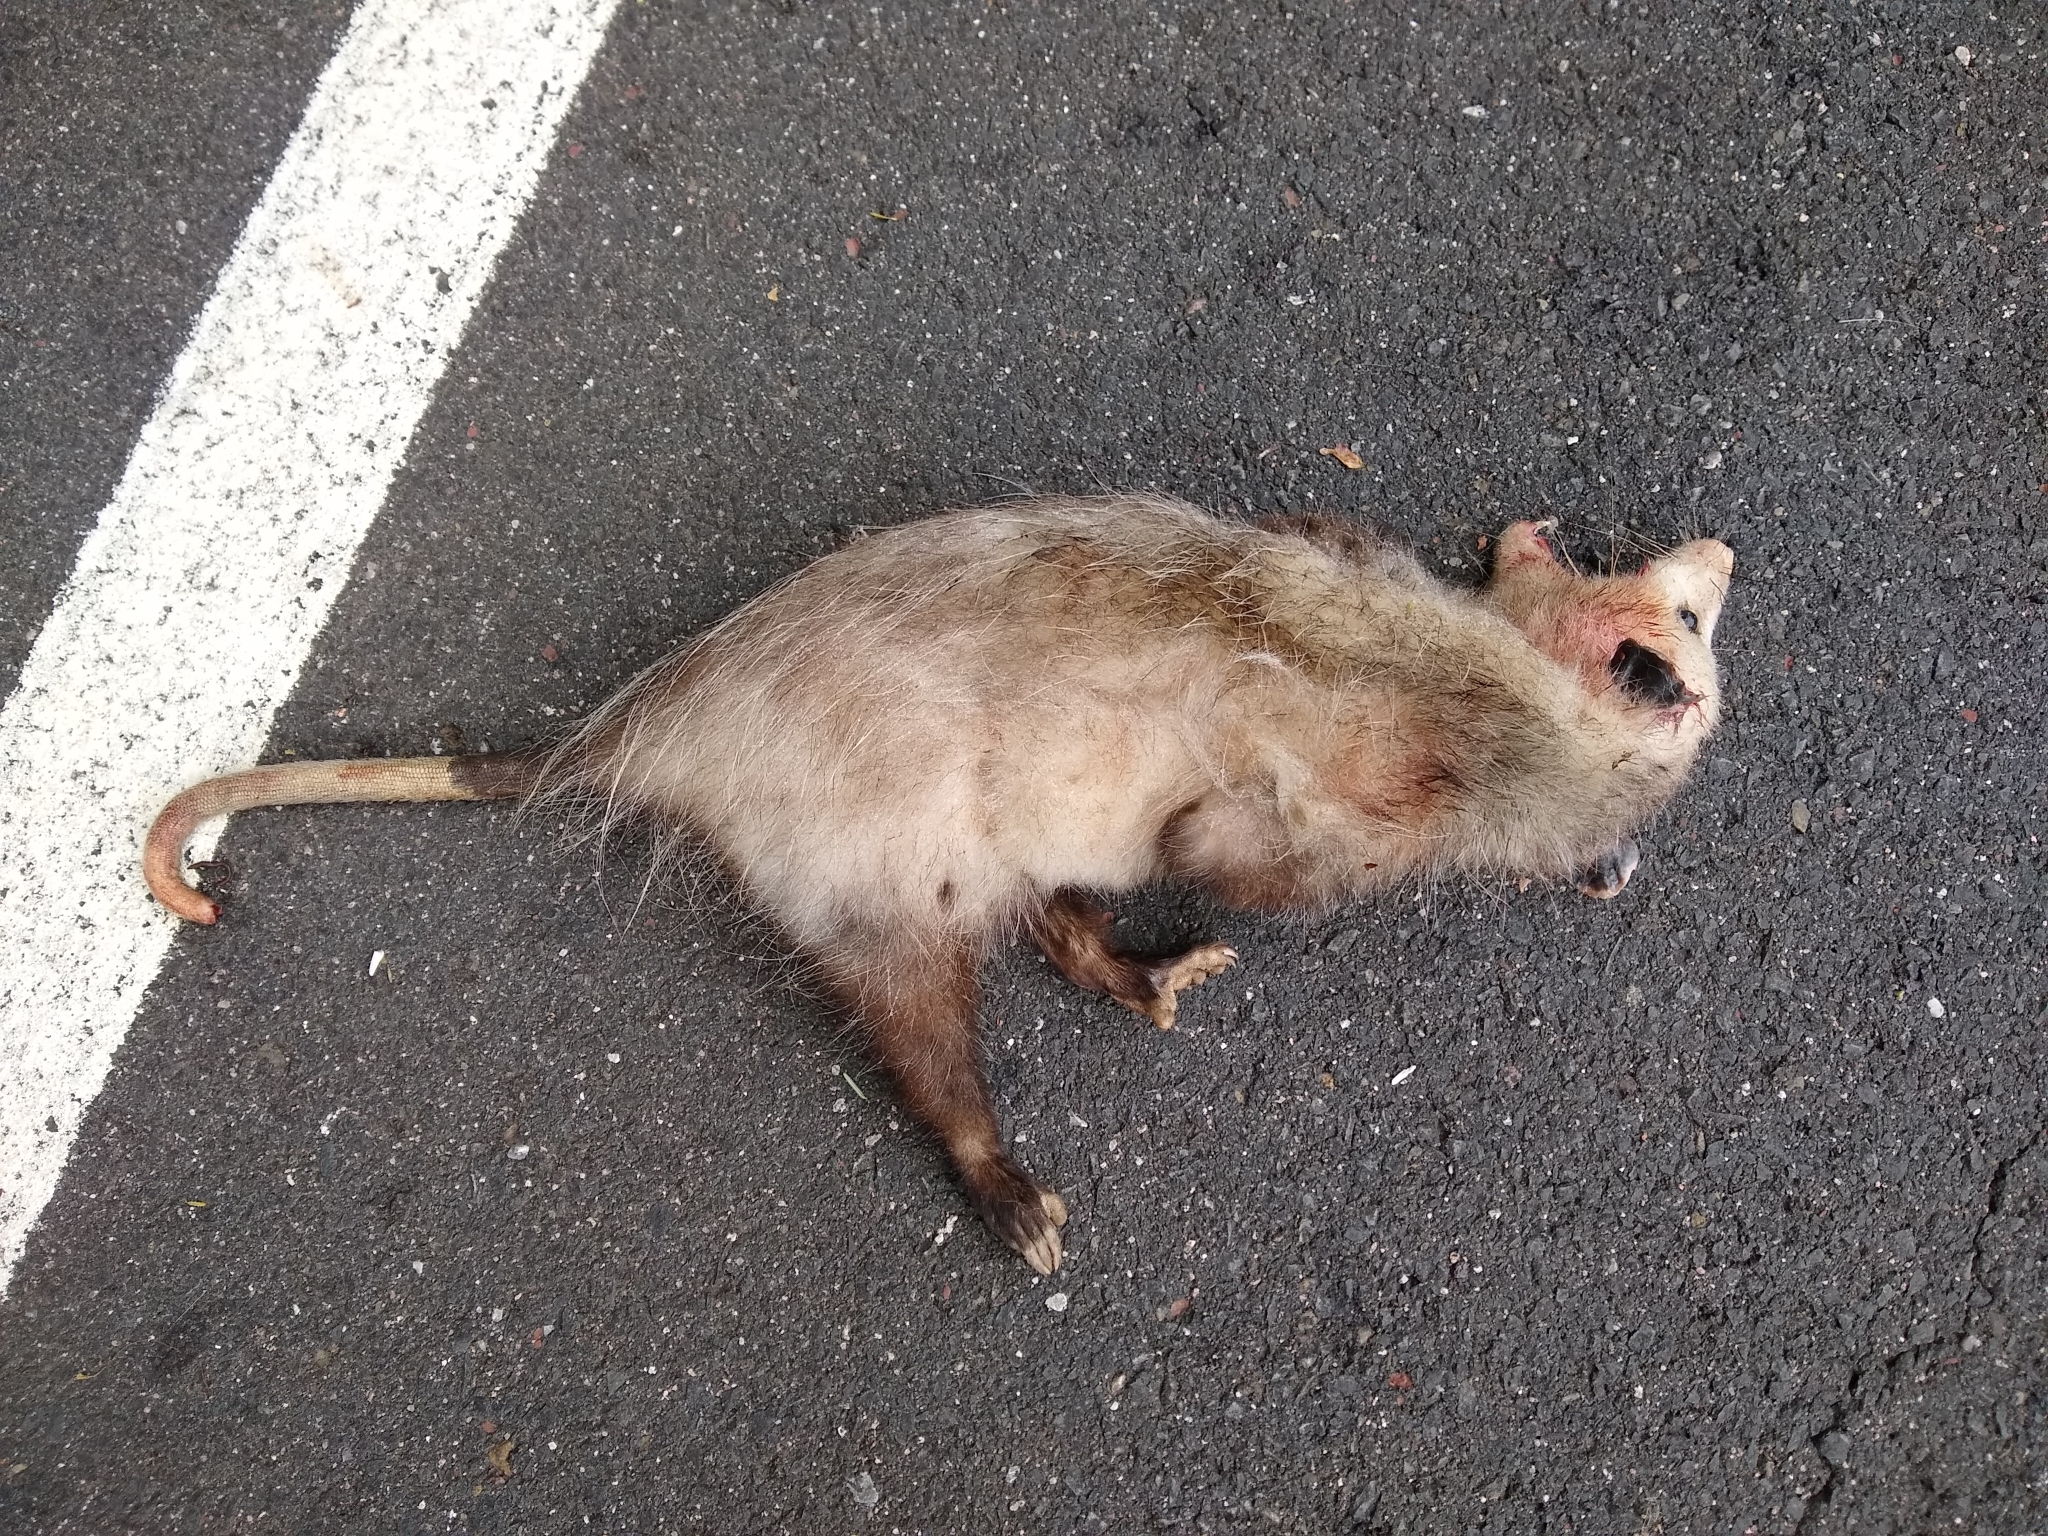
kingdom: Animalia
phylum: Chordata
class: Mammalia
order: Didelphimorphia
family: Didelphidae
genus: Didelphis
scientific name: Didelphis virginiana
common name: Virginia opossum
